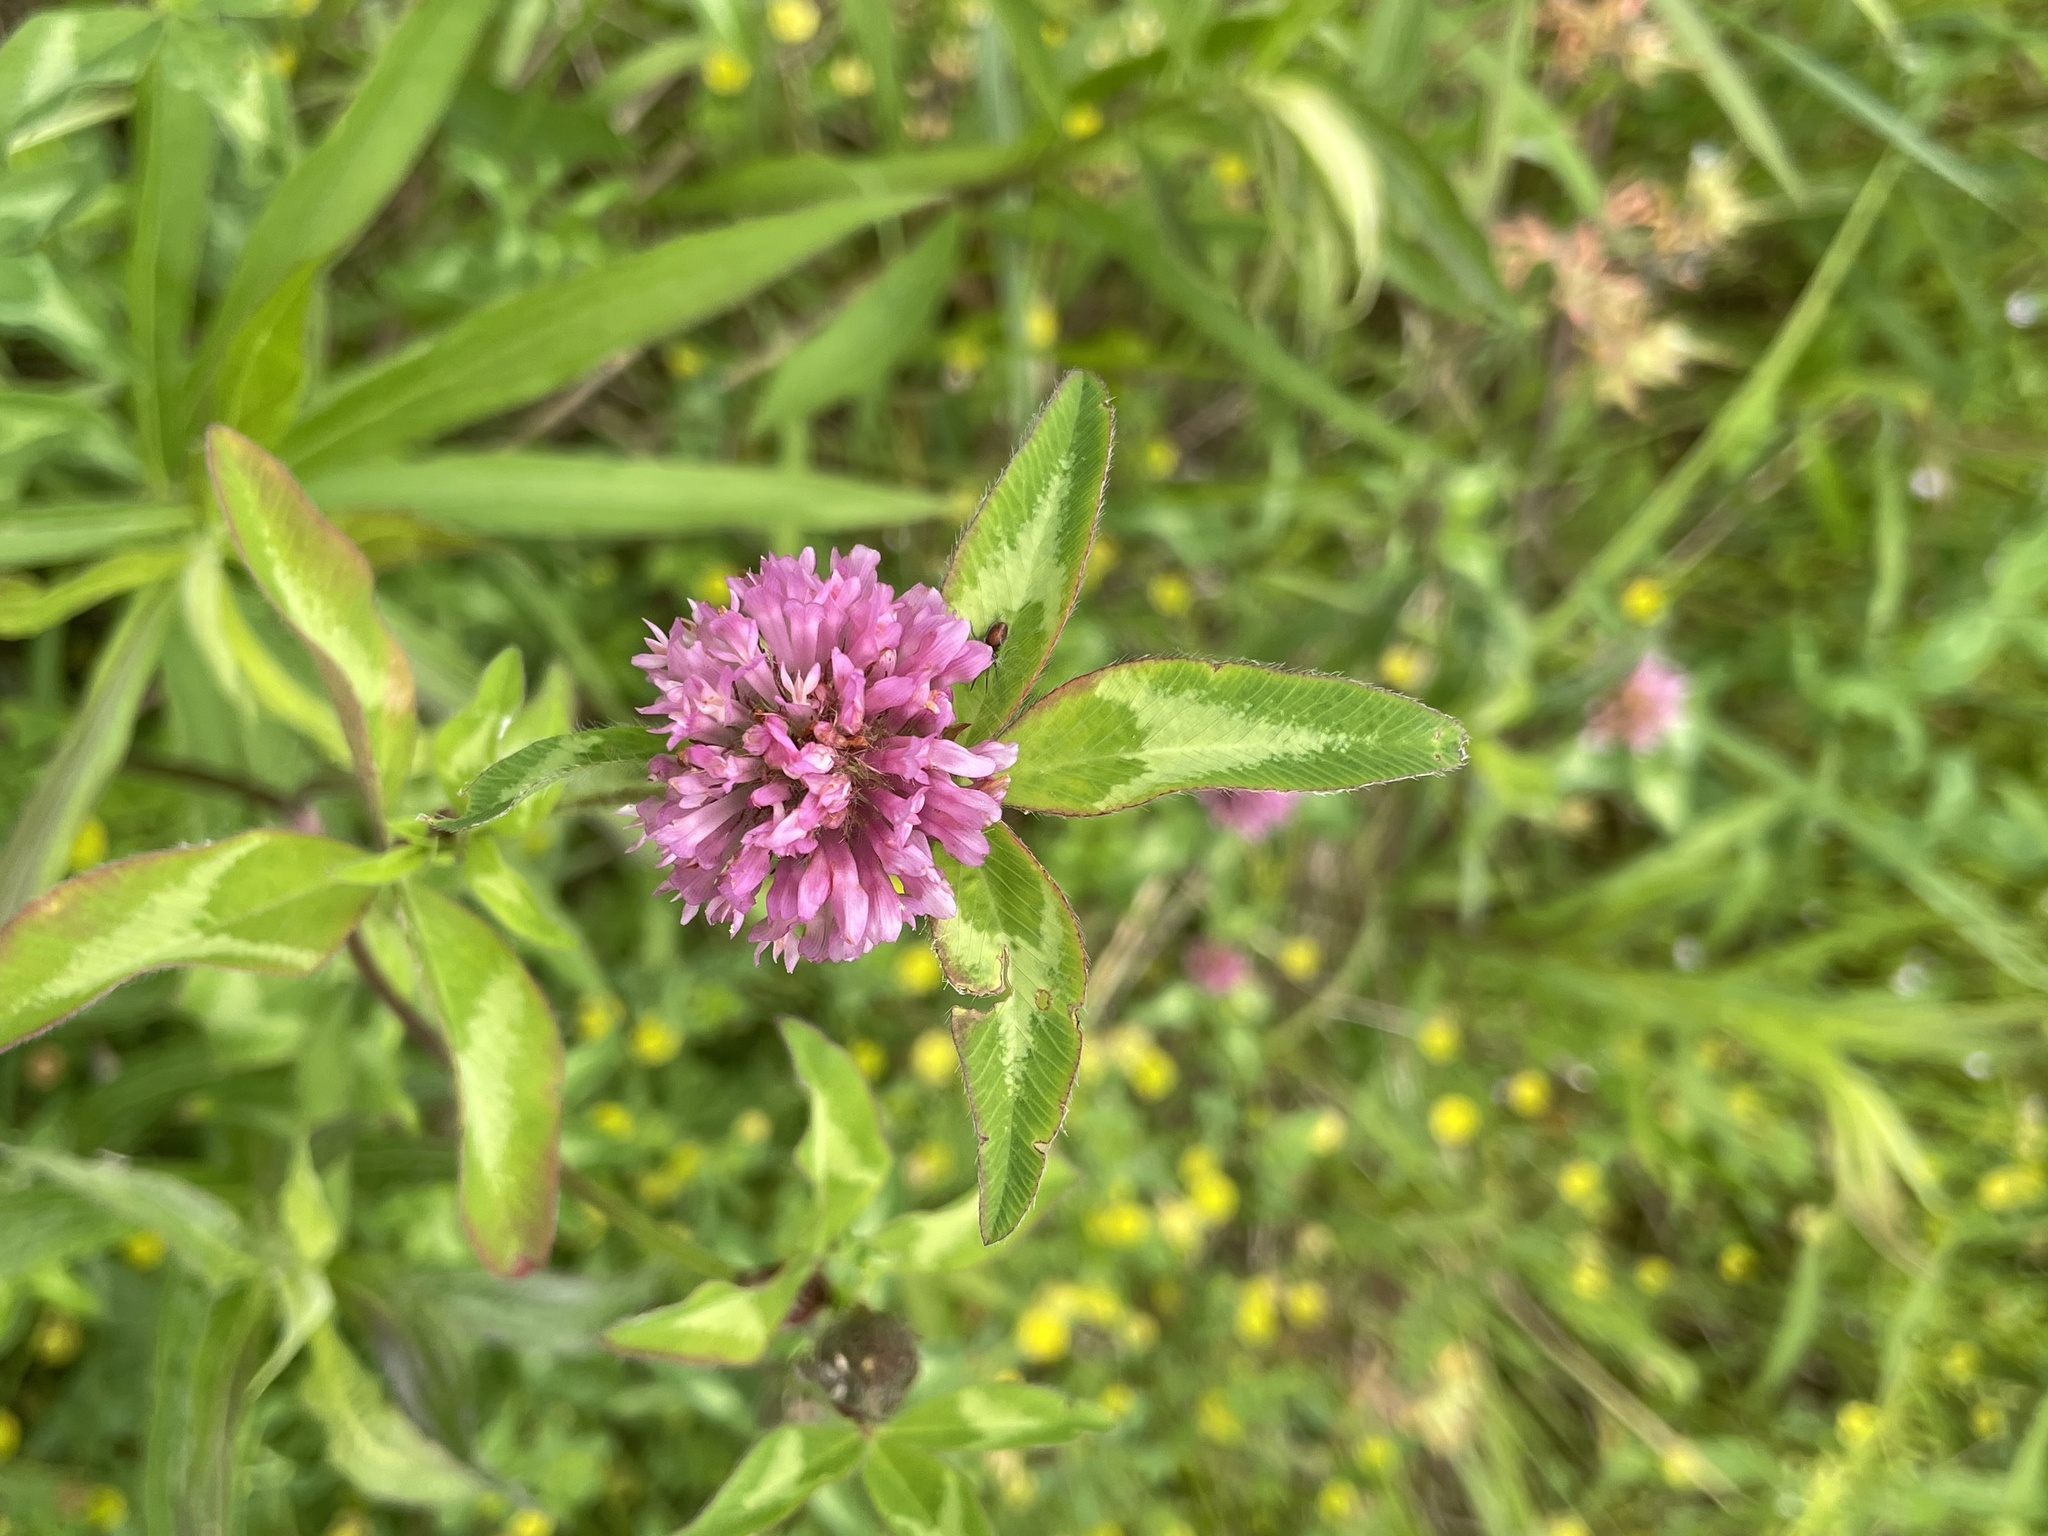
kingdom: Plantae
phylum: Tracheophyta
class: Magnoliopsida
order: Fabales
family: Fabaceae
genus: Trifolium
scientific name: Trifolium pratense
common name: Red clover
